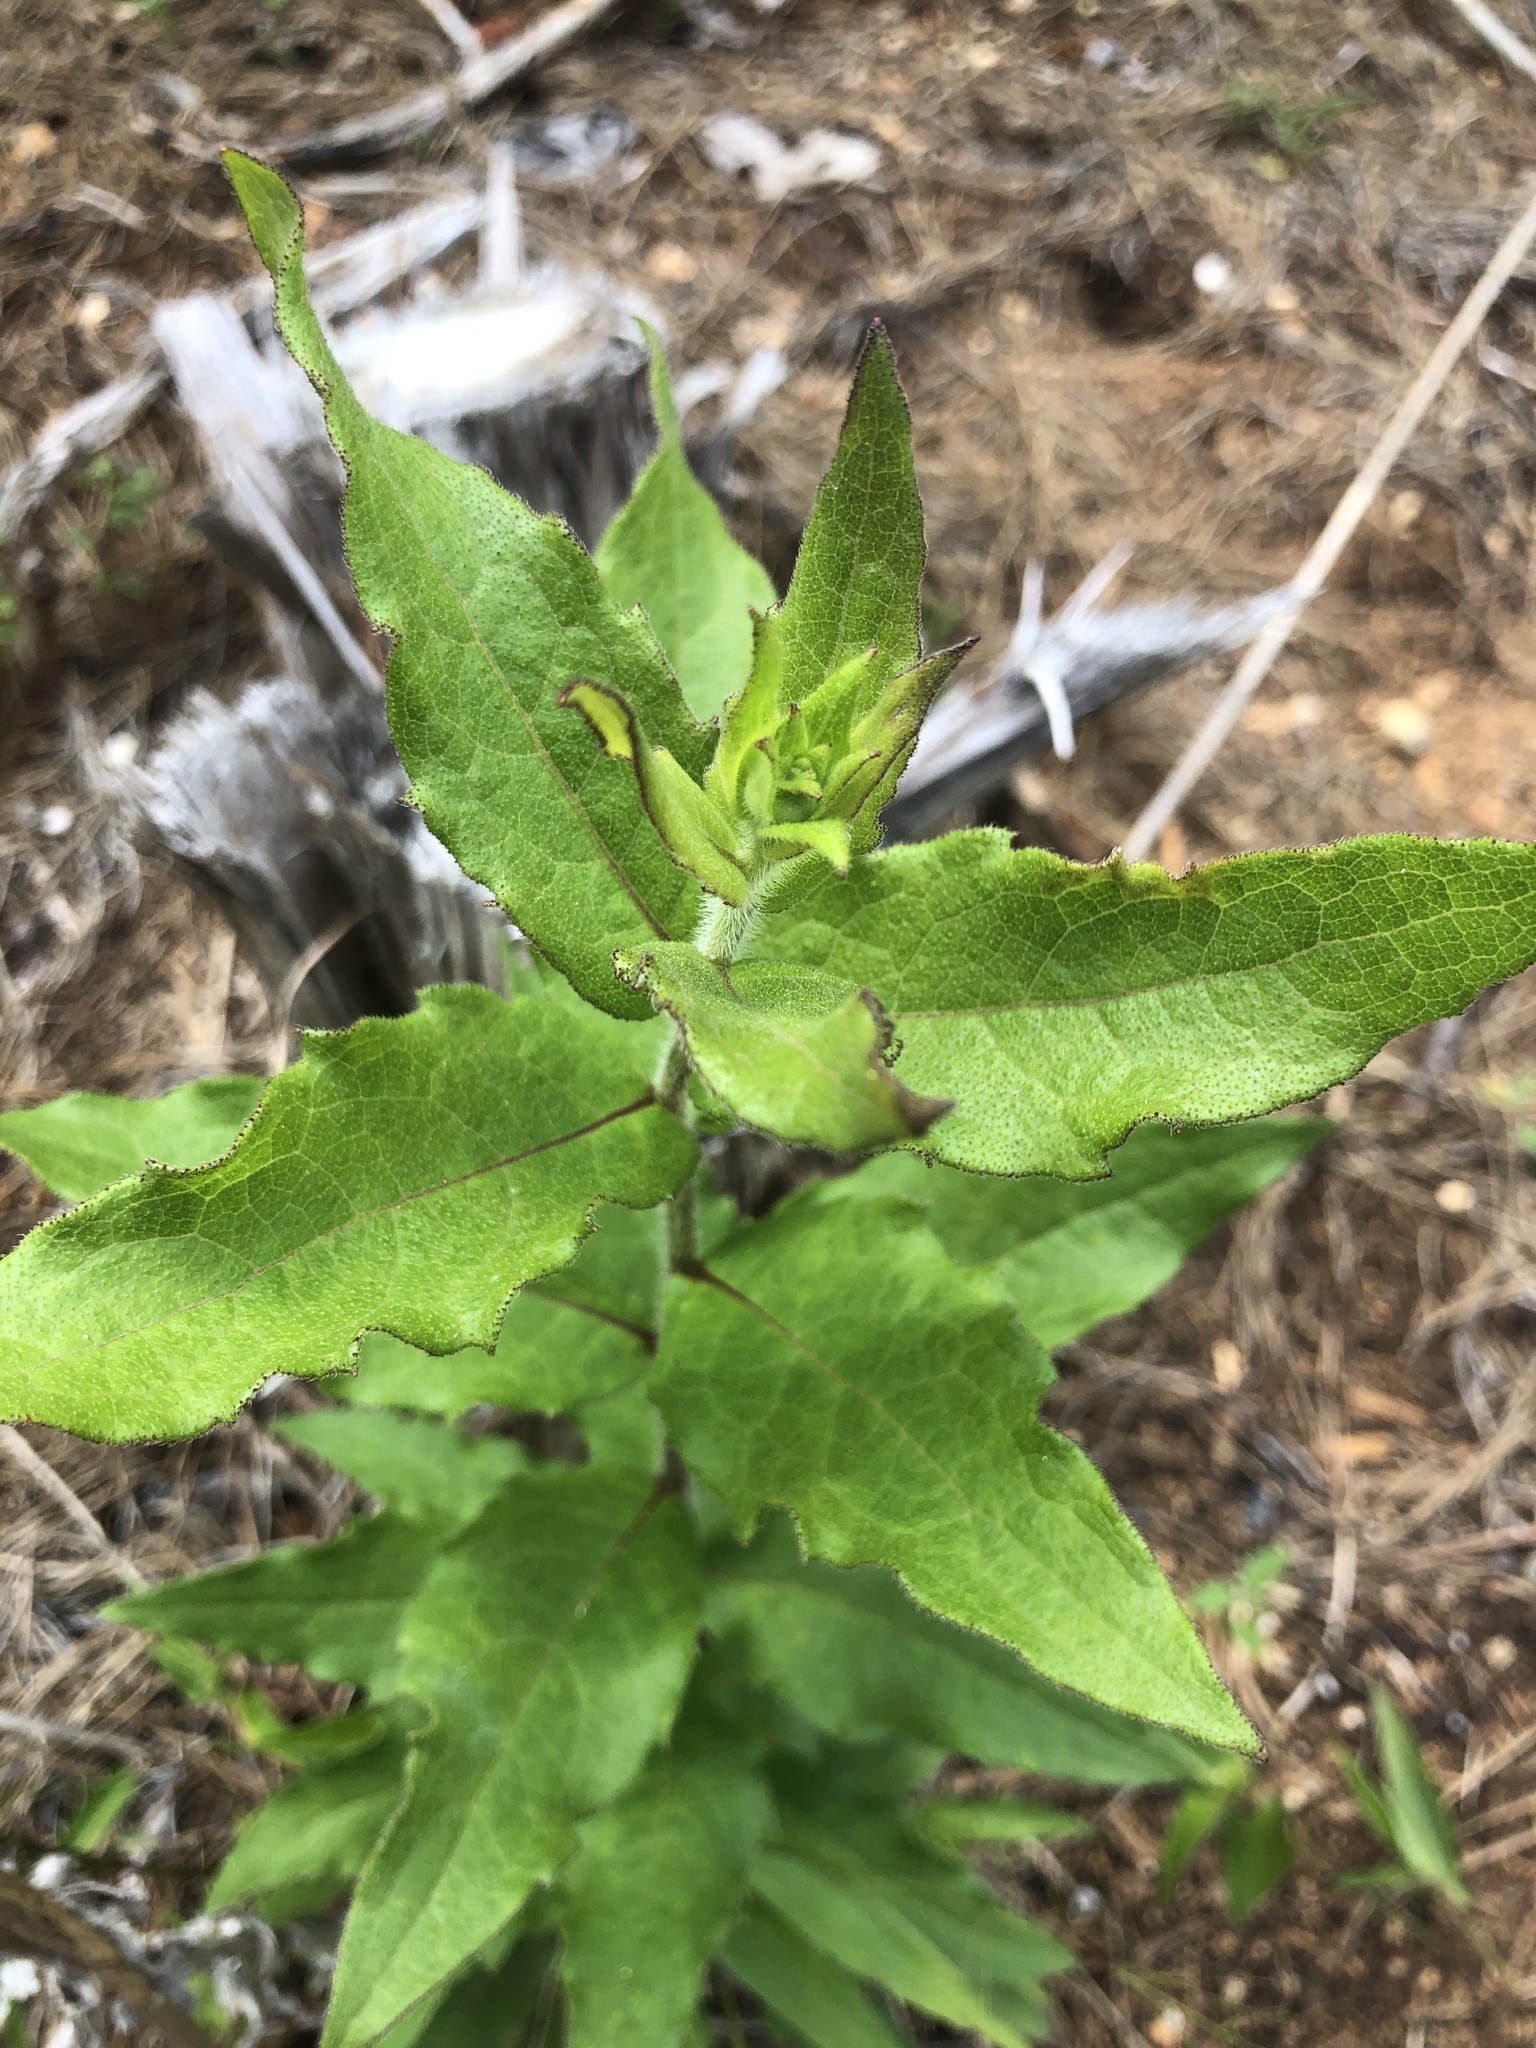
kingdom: Plantae
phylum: Tracheophyta
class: Magnoliopsida
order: Asterales
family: Asteraceae
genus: Silphium
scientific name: Silphium asperrimum
